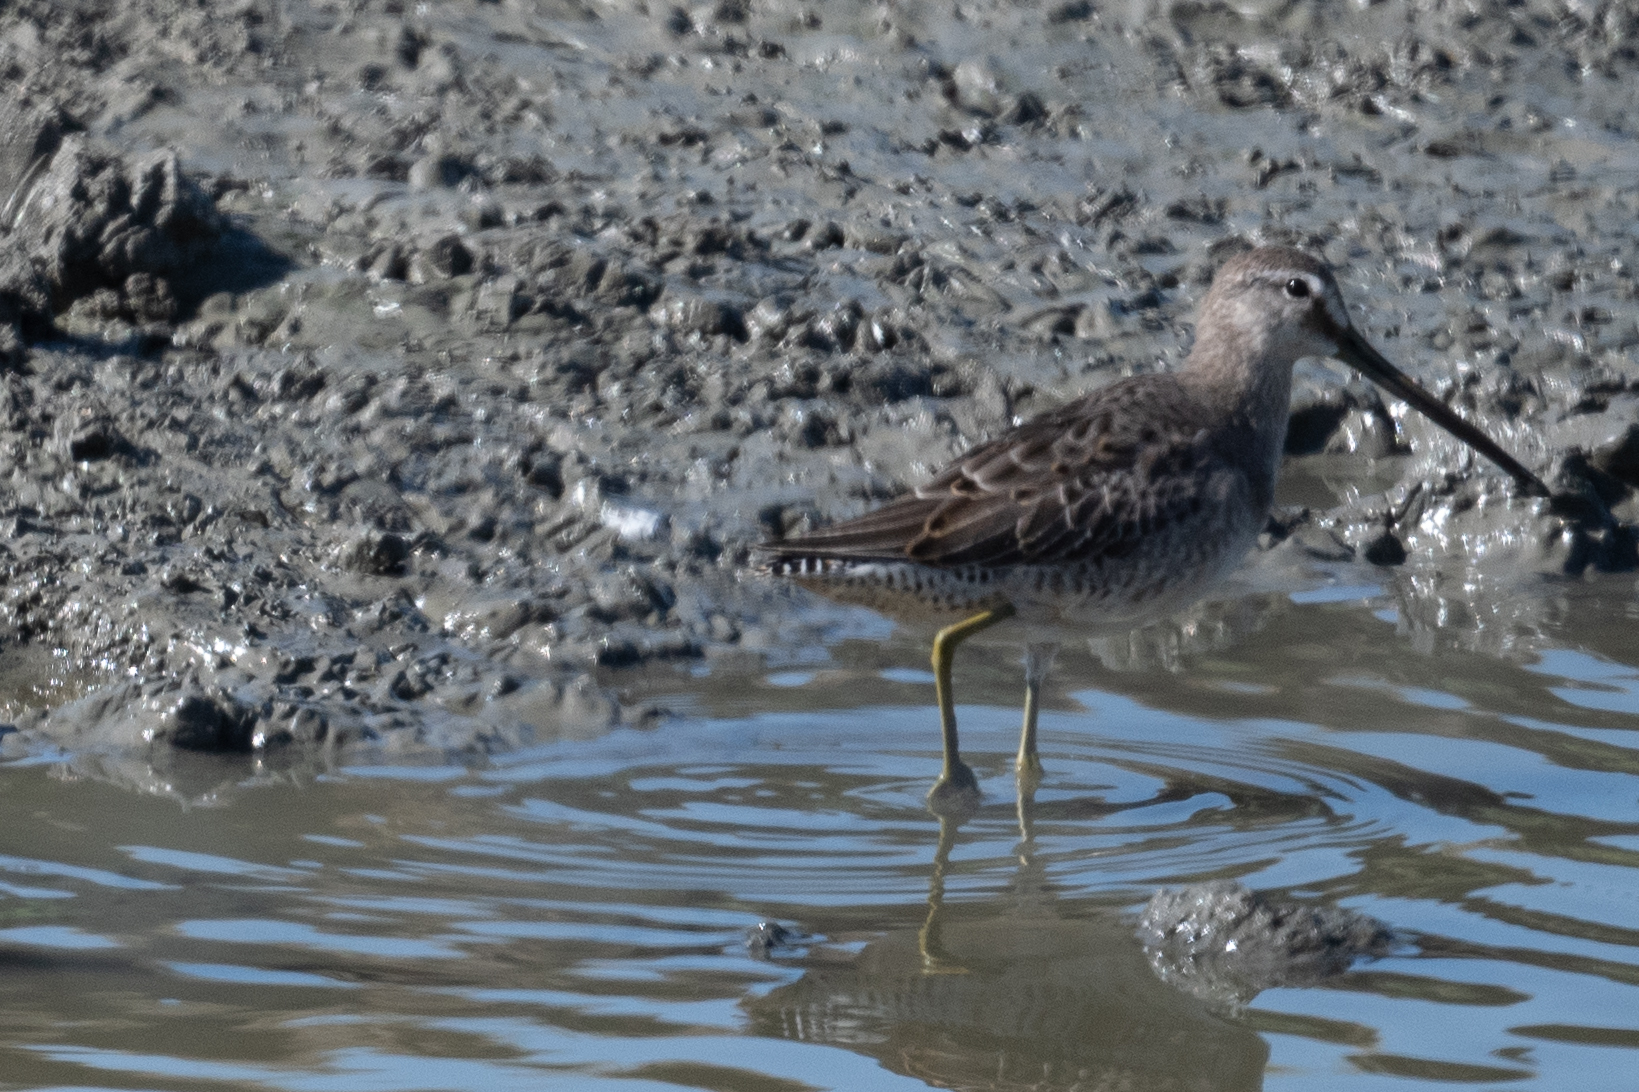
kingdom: Animalia
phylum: Chordata
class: Aves
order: Charadriiformes
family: Scolopacidae
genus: Limnodromus
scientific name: Limnodromus scolopaceus
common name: Long-billed dowitcher
